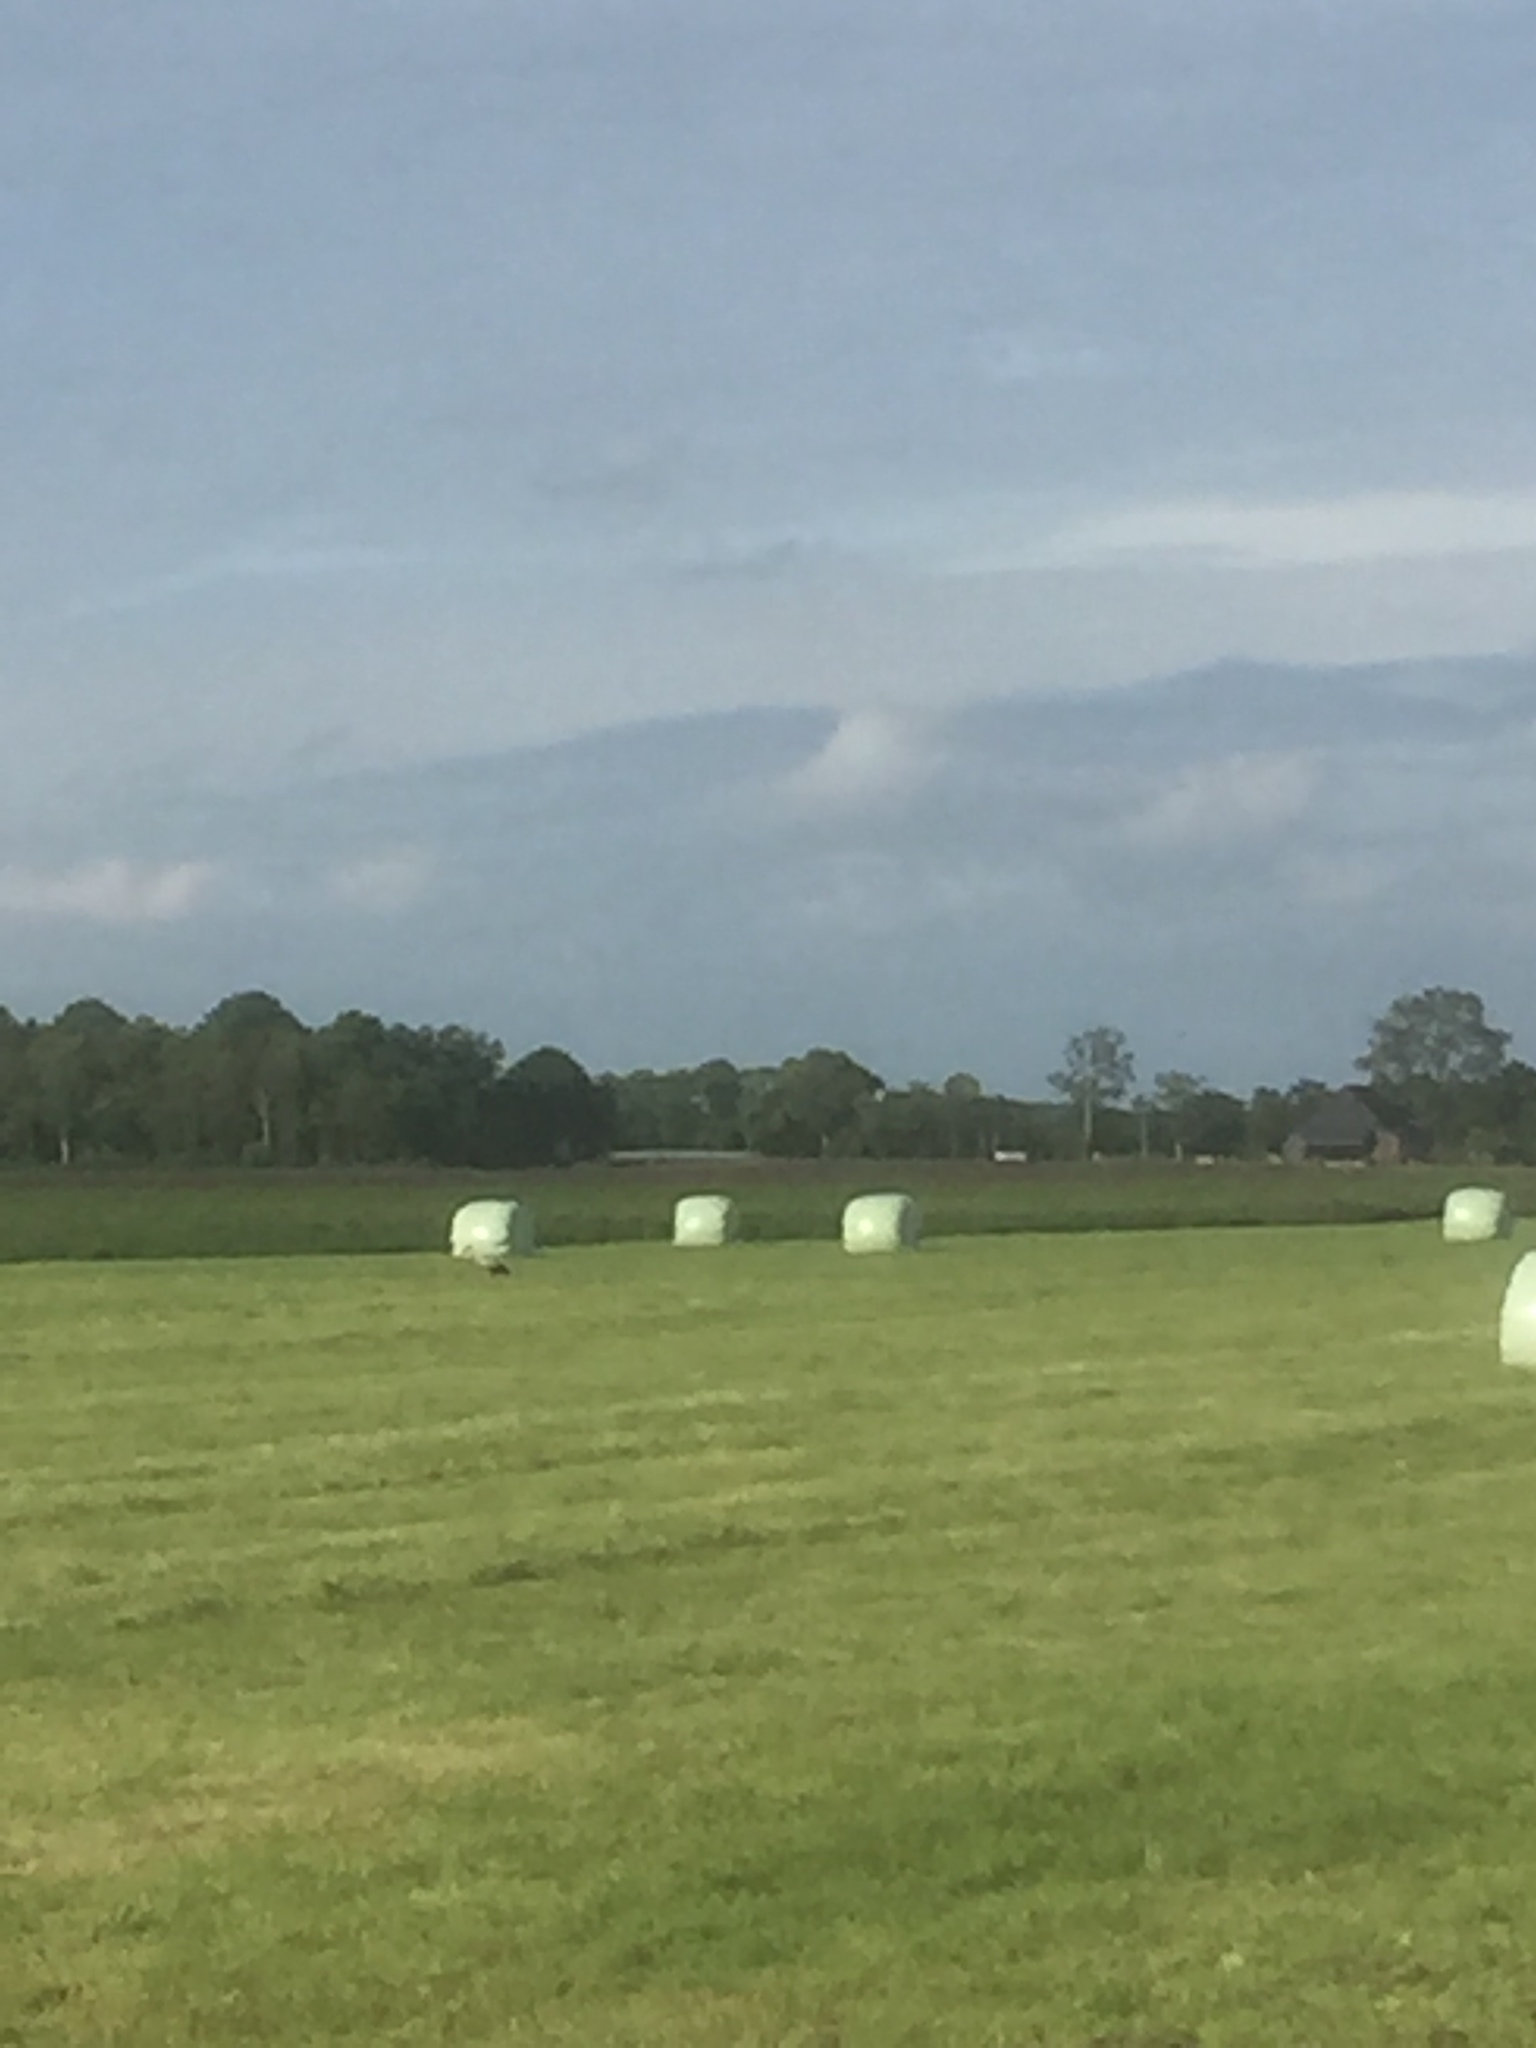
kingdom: Animalia
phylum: Chordata
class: Aves
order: Ciconiiformes
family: Ciconiidae
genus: Ciconia
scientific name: Ciconia ciconia
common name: White stork
